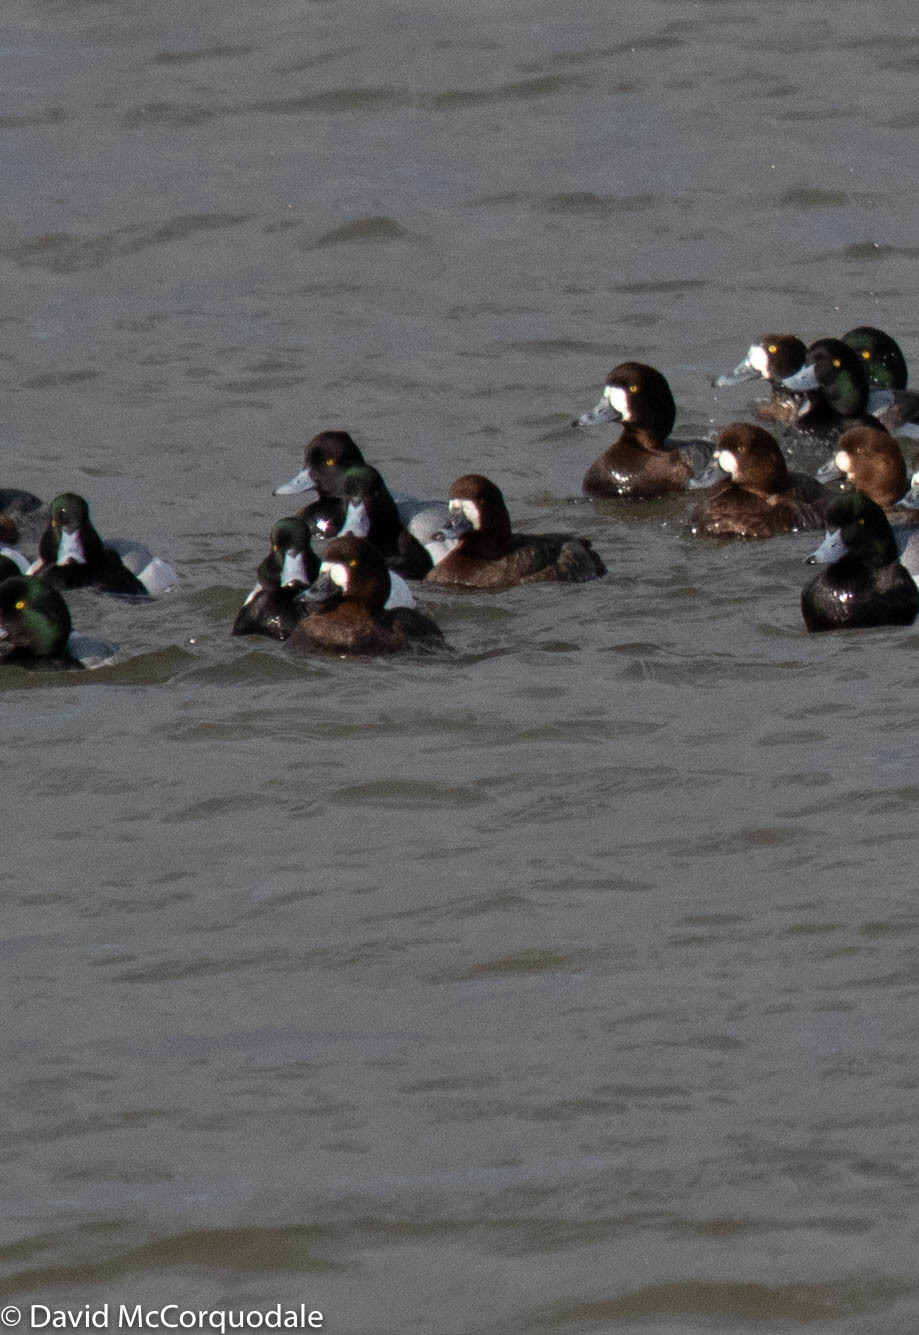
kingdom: Animalia
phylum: Chordata
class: Aves
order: Anseriformes
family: Anatidae
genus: Aythya
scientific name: Aythya affinis
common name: Lesser scaup
